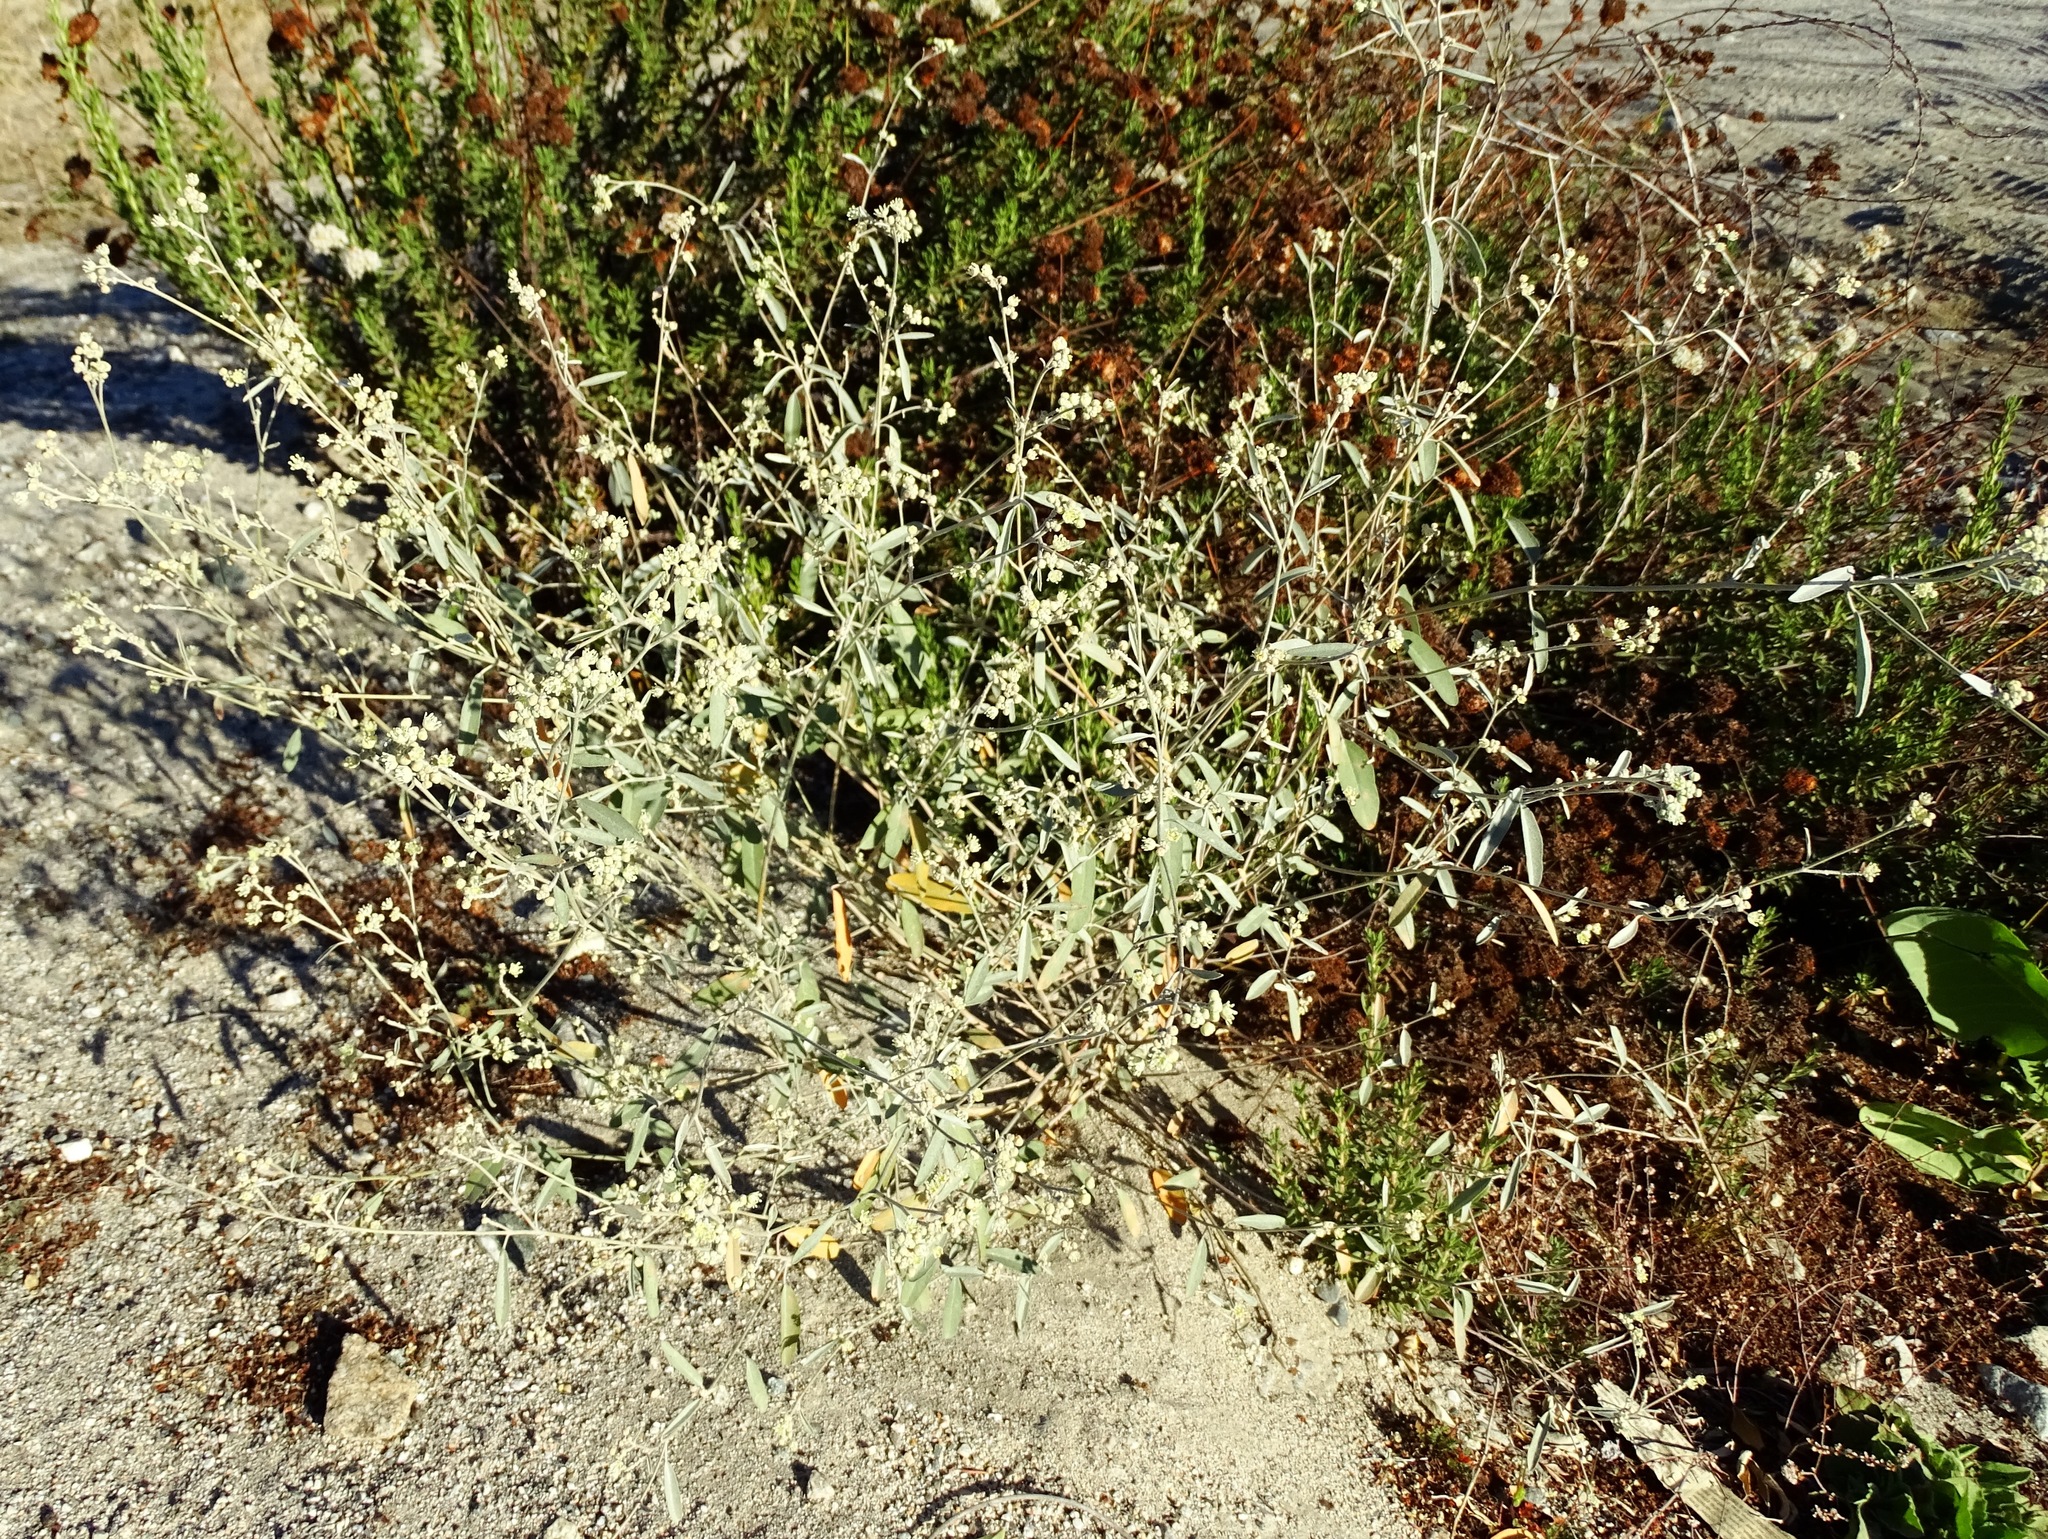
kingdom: Plantae
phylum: Tracheophyta
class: Magnoliopsida
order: Malpighiales
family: Euphorbiaceae
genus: Croton
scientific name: Croton californicus
